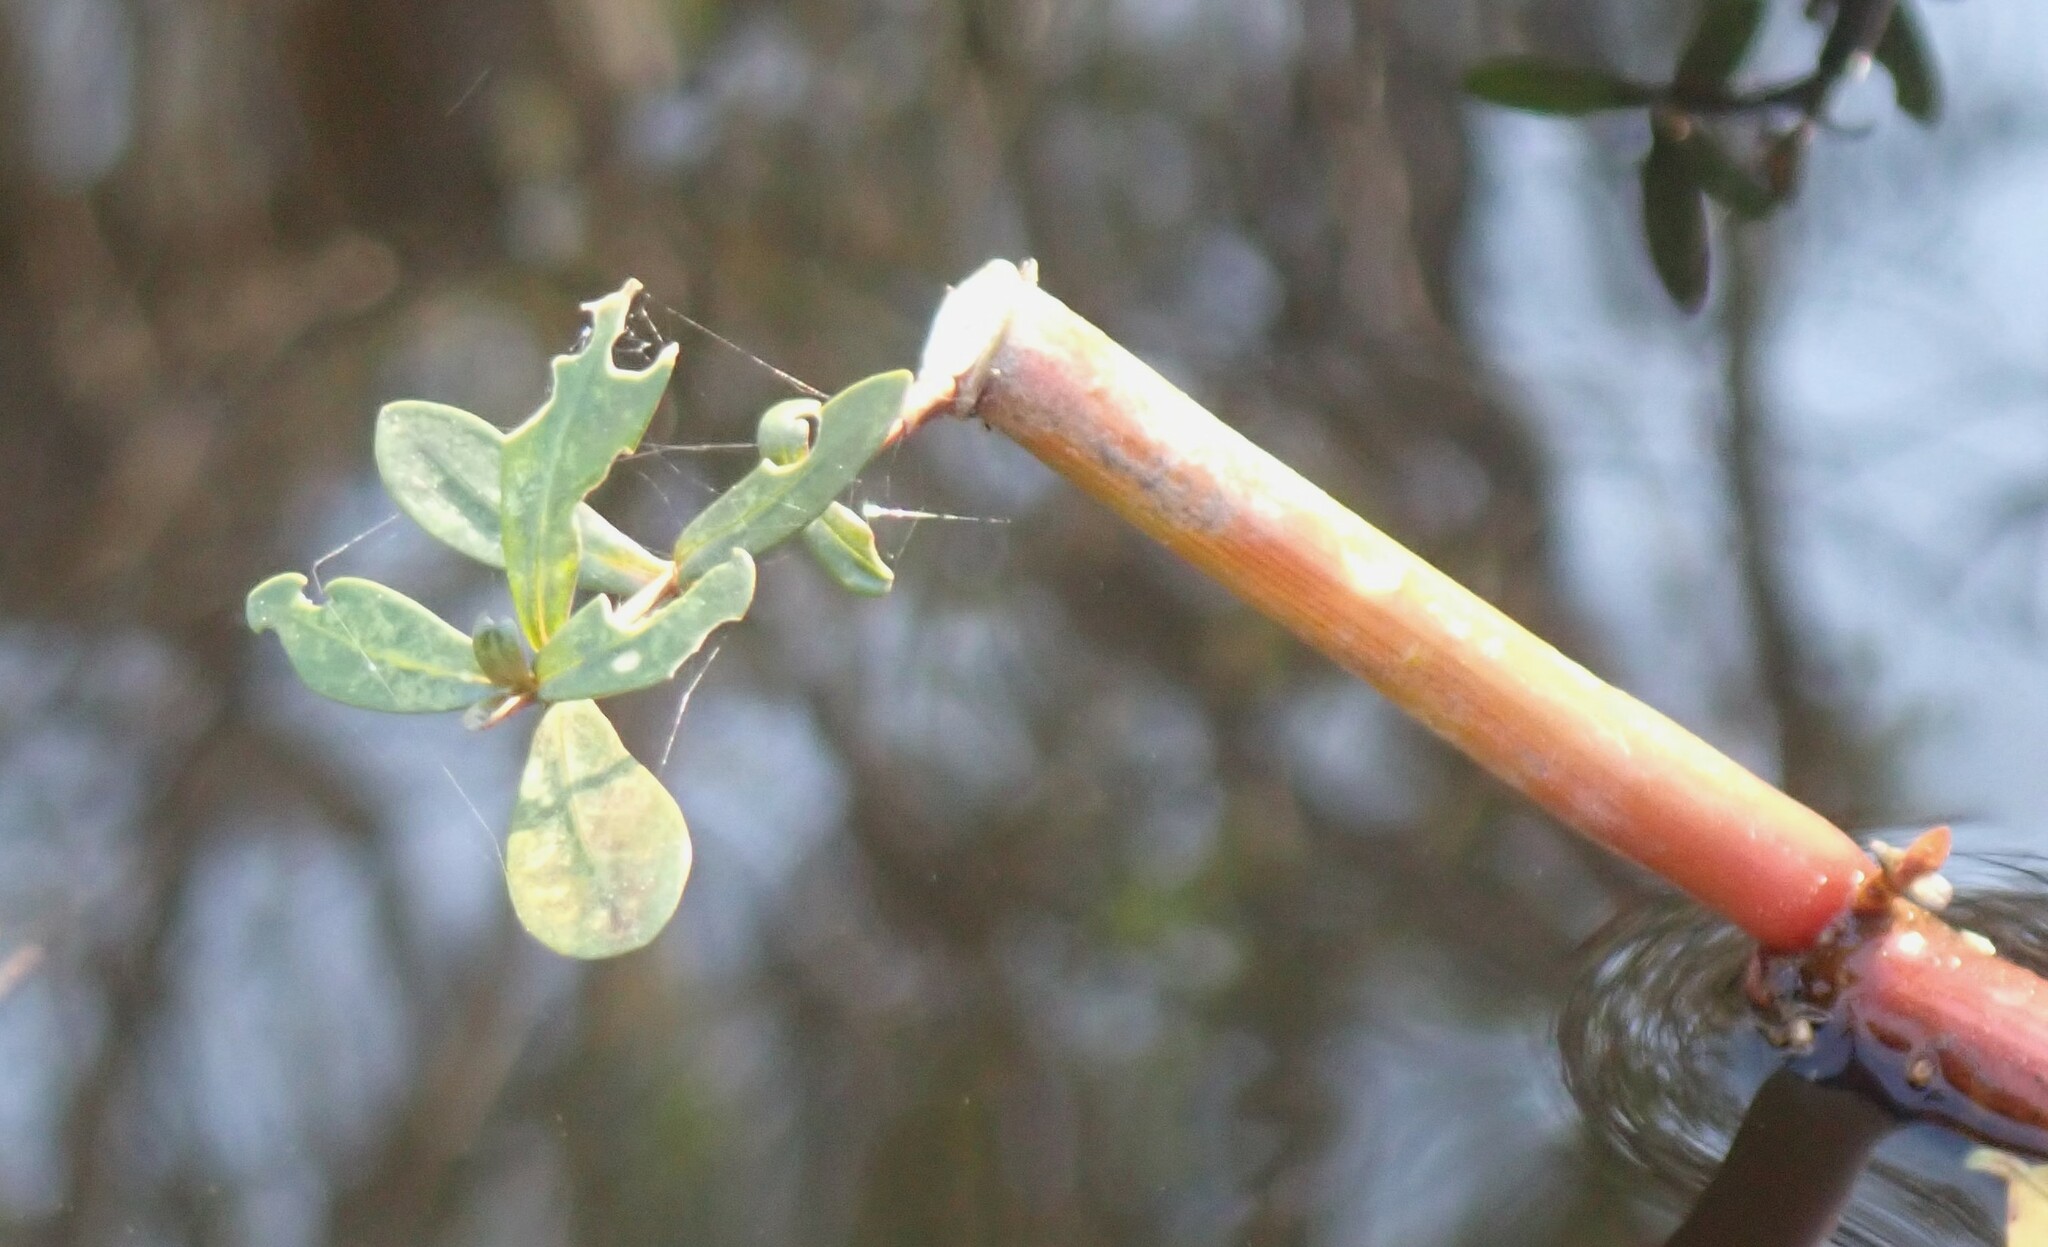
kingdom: Plantae
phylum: Tracheophyta
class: Magnoliopsida
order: Caryophyllales
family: Amaranthaceae
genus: Alternanthera
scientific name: Alternanthera philoxeroides
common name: Alligatorweed
